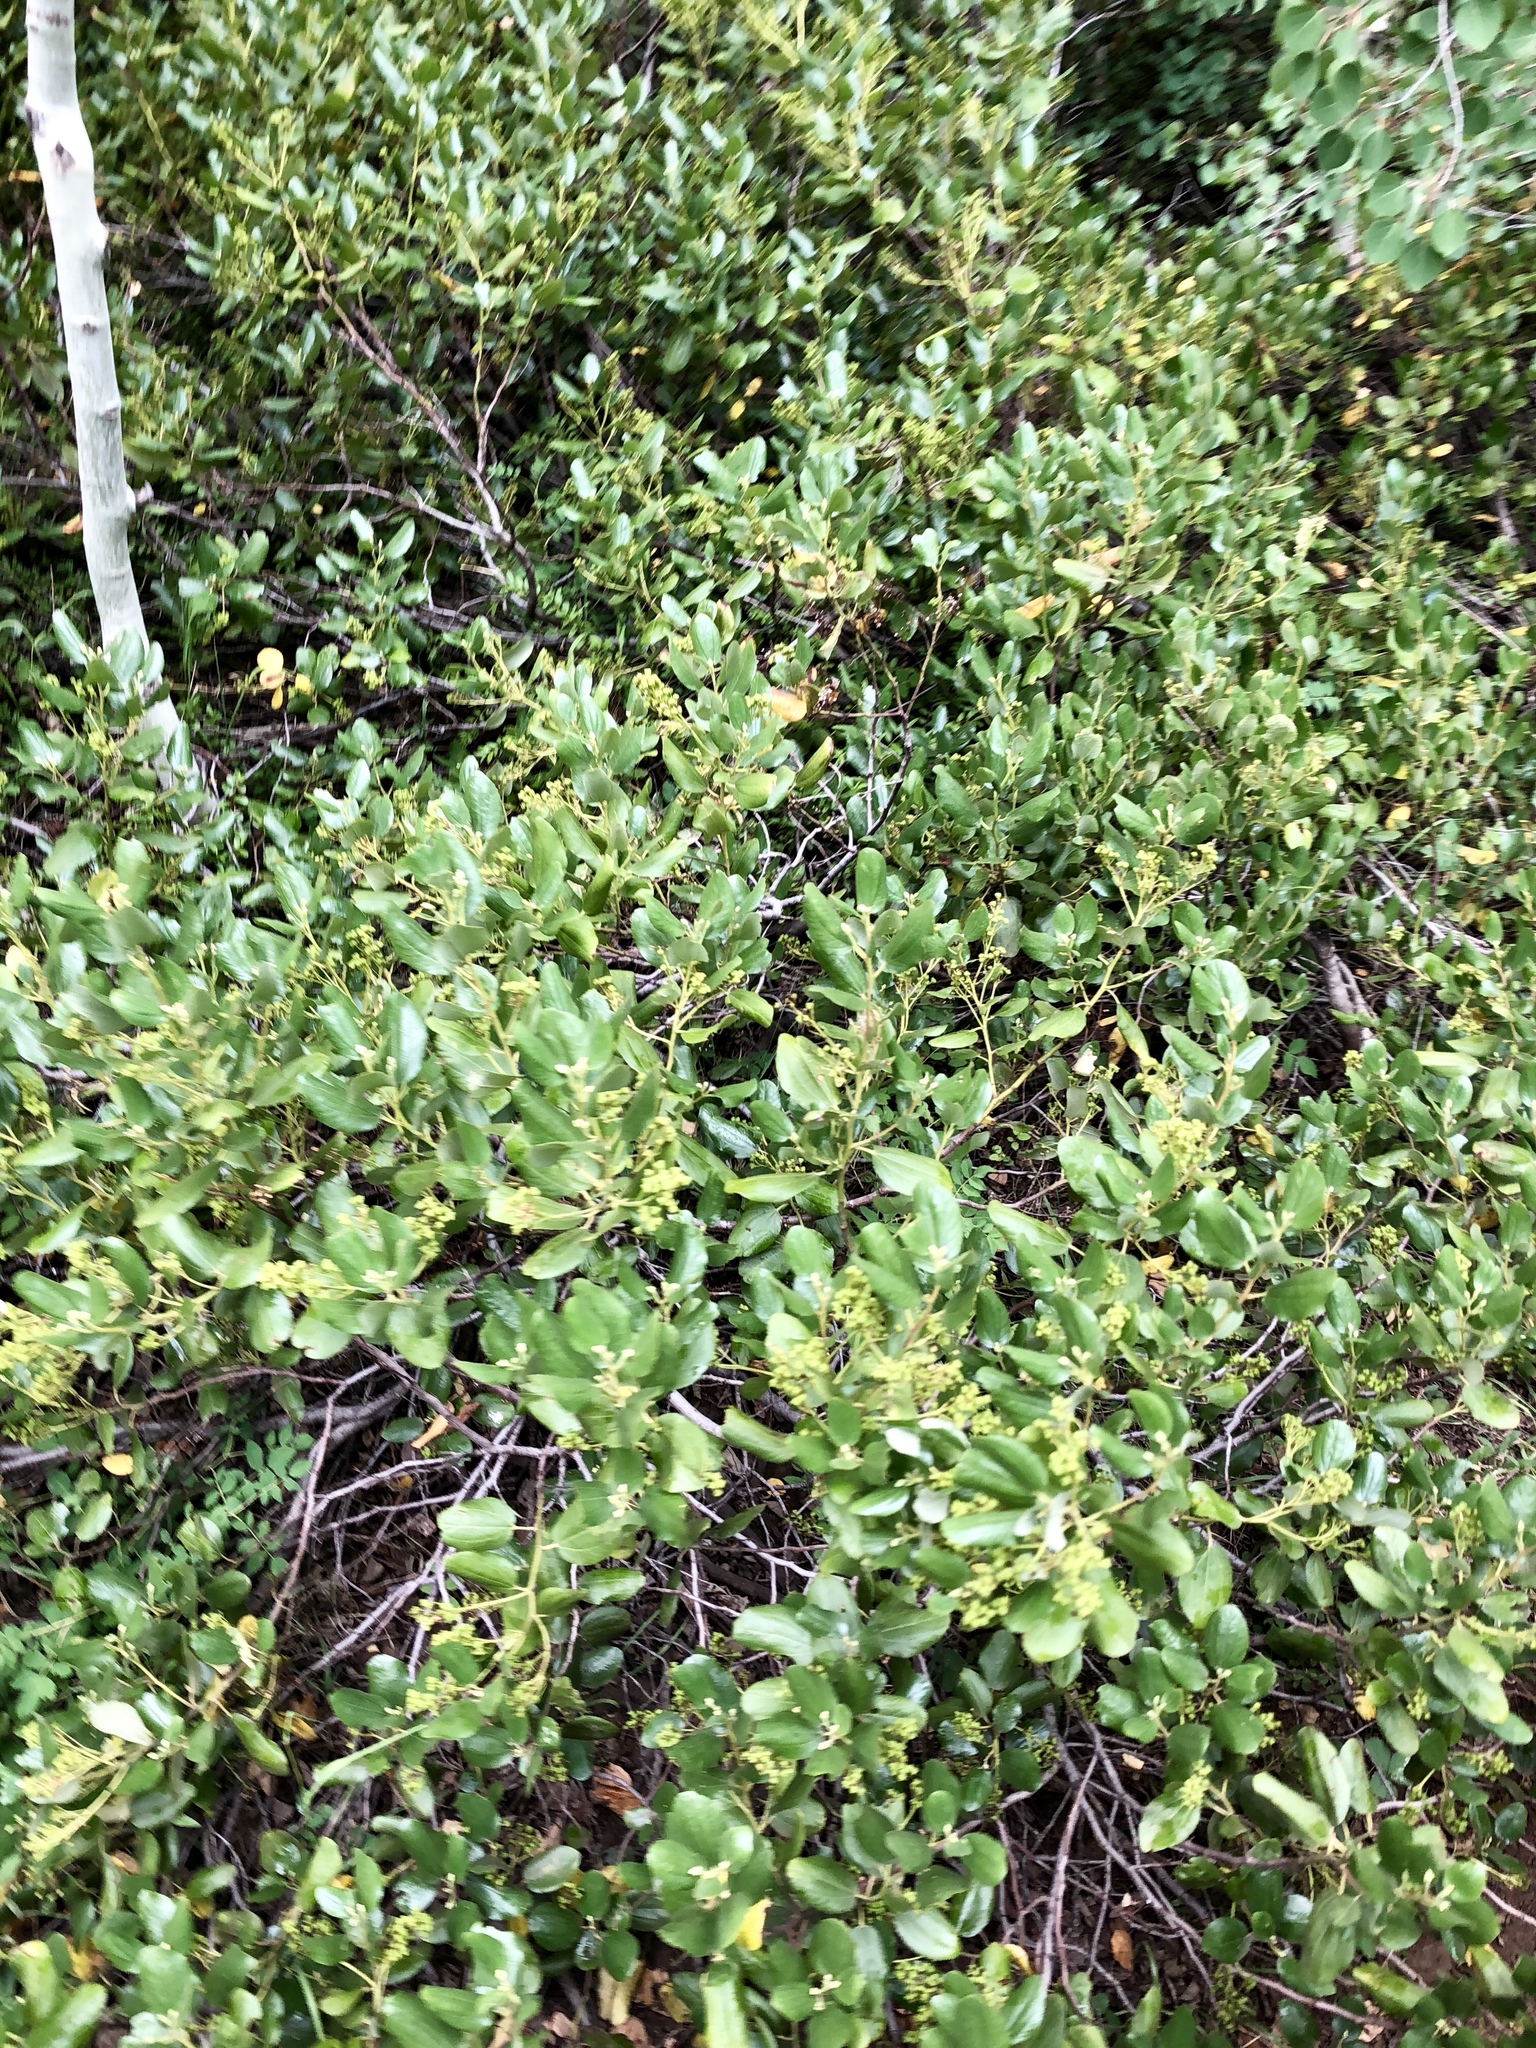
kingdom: Plantae
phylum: Tracheophyta
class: Magnoliopsida
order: Rosales
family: Rhamnaceae
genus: Ceanothus
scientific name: Ceanothus velutinus
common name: Snowbrush
